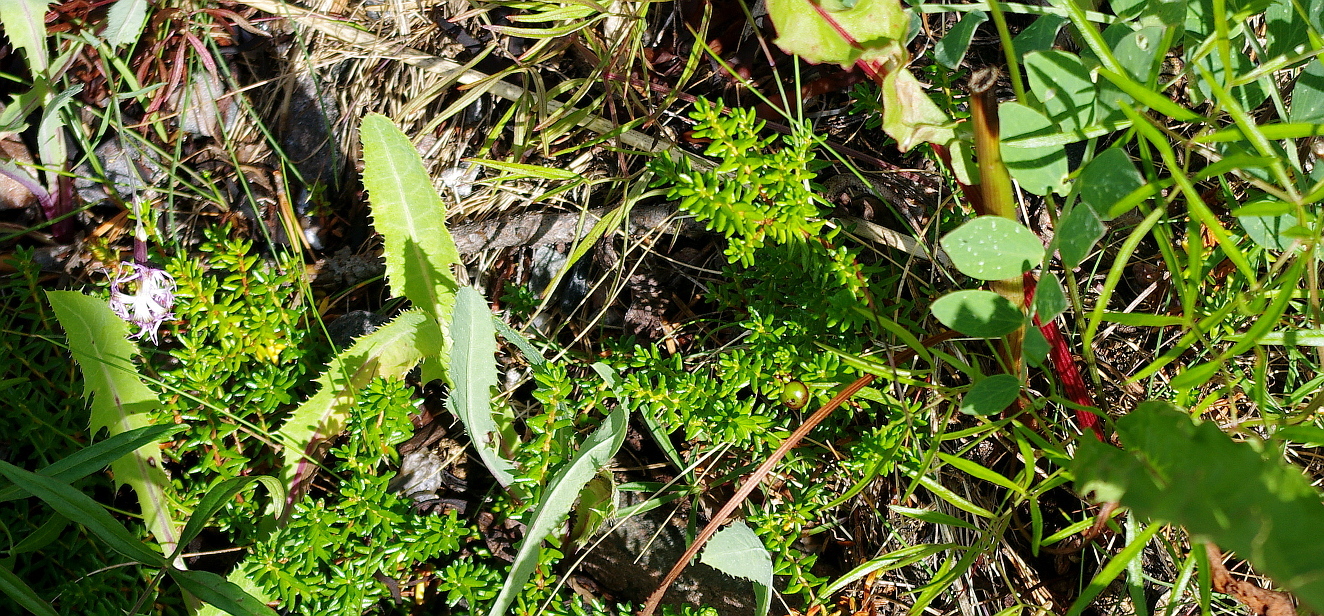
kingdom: Plantae
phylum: Tracheophyta
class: Magnoliopsida
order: Ericales
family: Ericaceae
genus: Empetrum
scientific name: Empetrum nigrum
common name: Black crowberry
